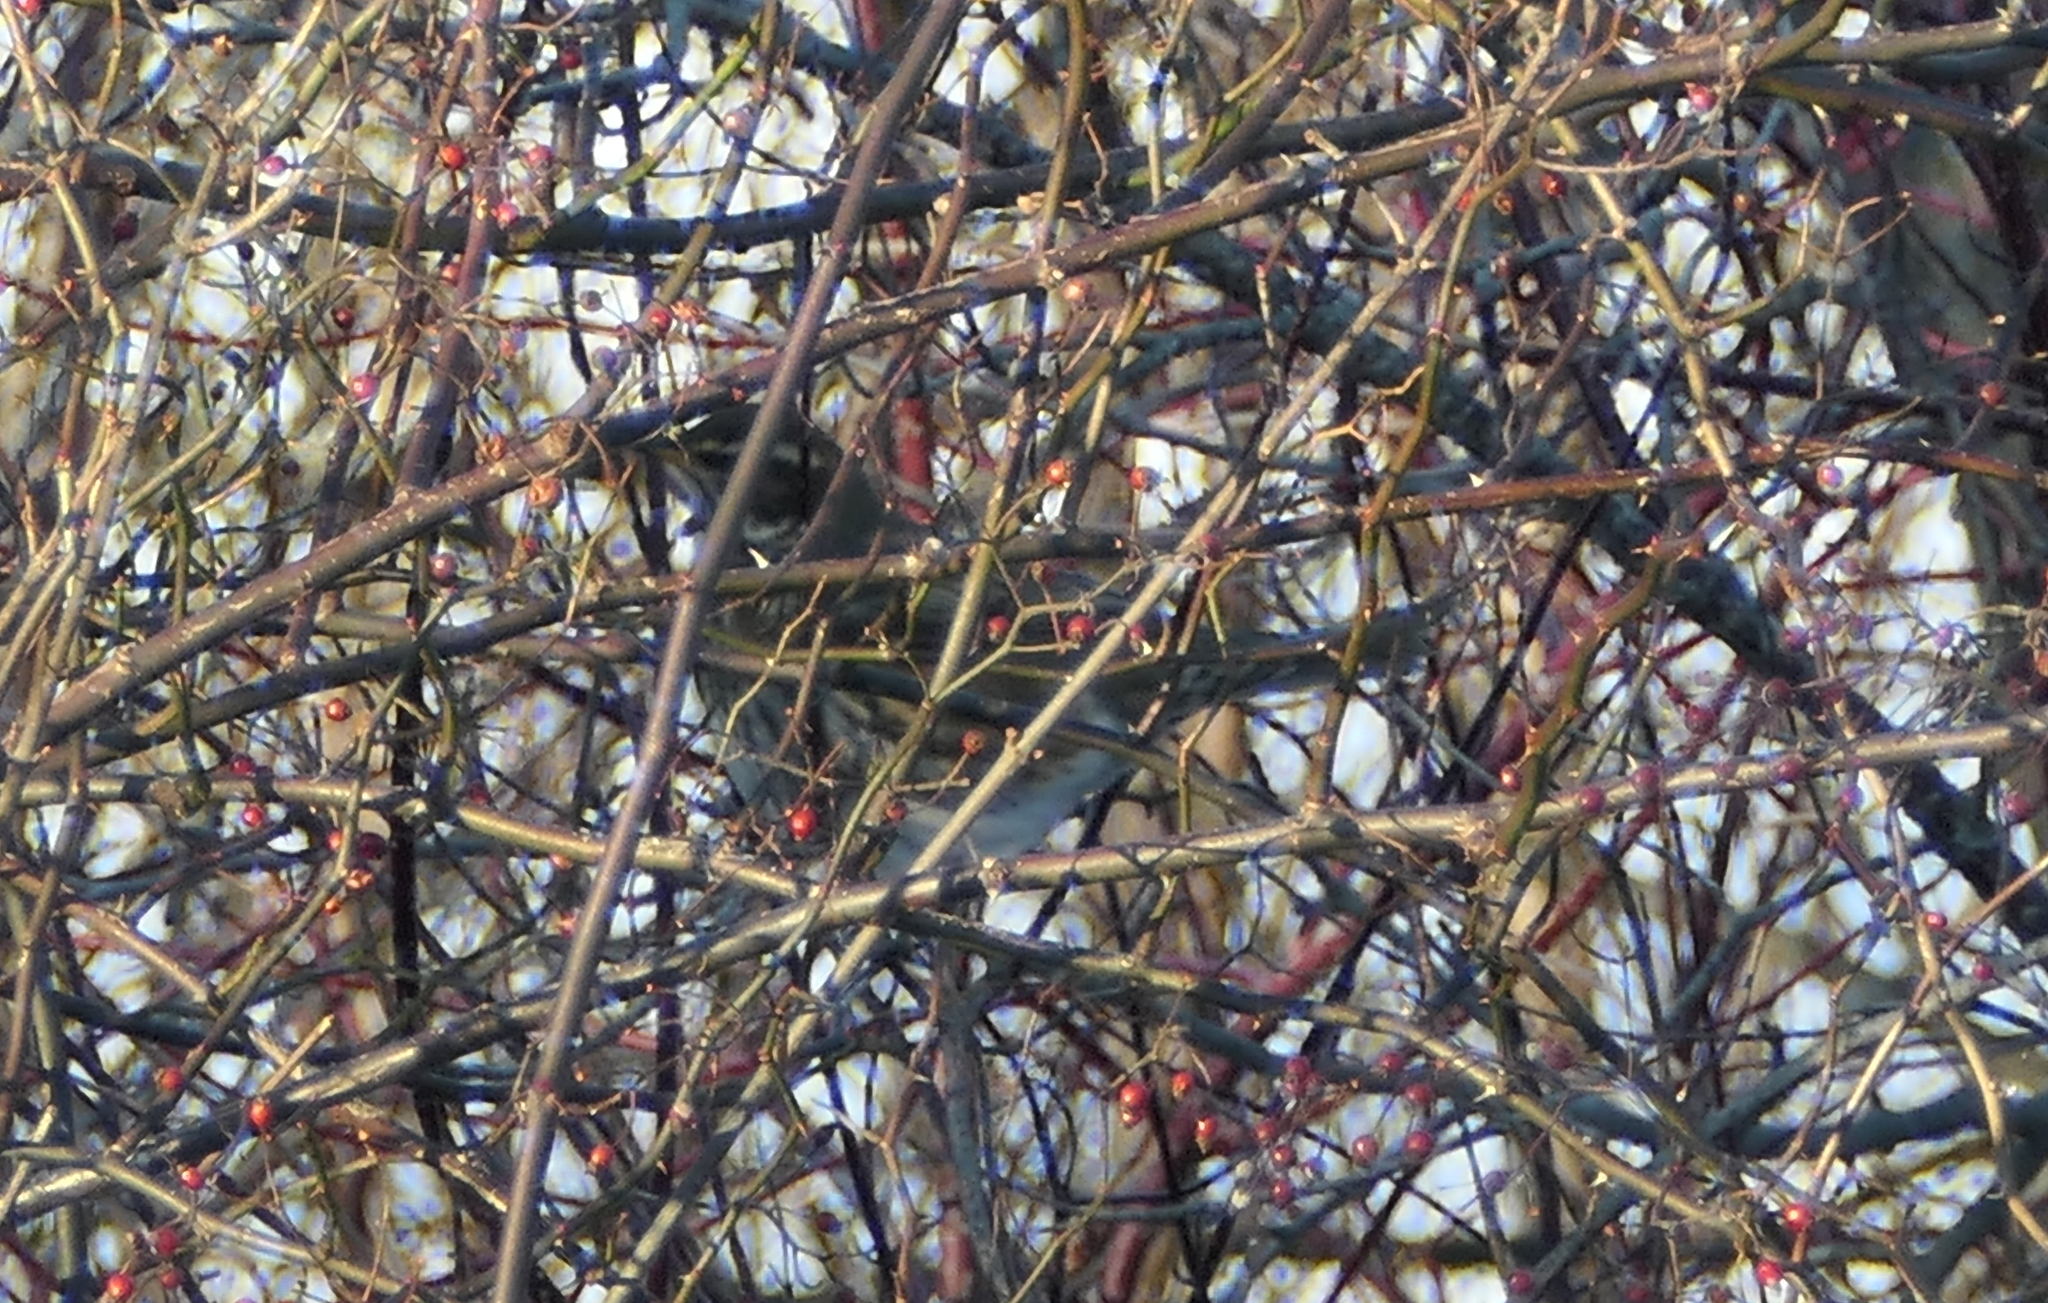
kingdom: Animalia
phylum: Chordata
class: Aves
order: Passeriformes
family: Turdidae
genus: Turdus
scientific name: Turdus iliacus
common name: Redwing
